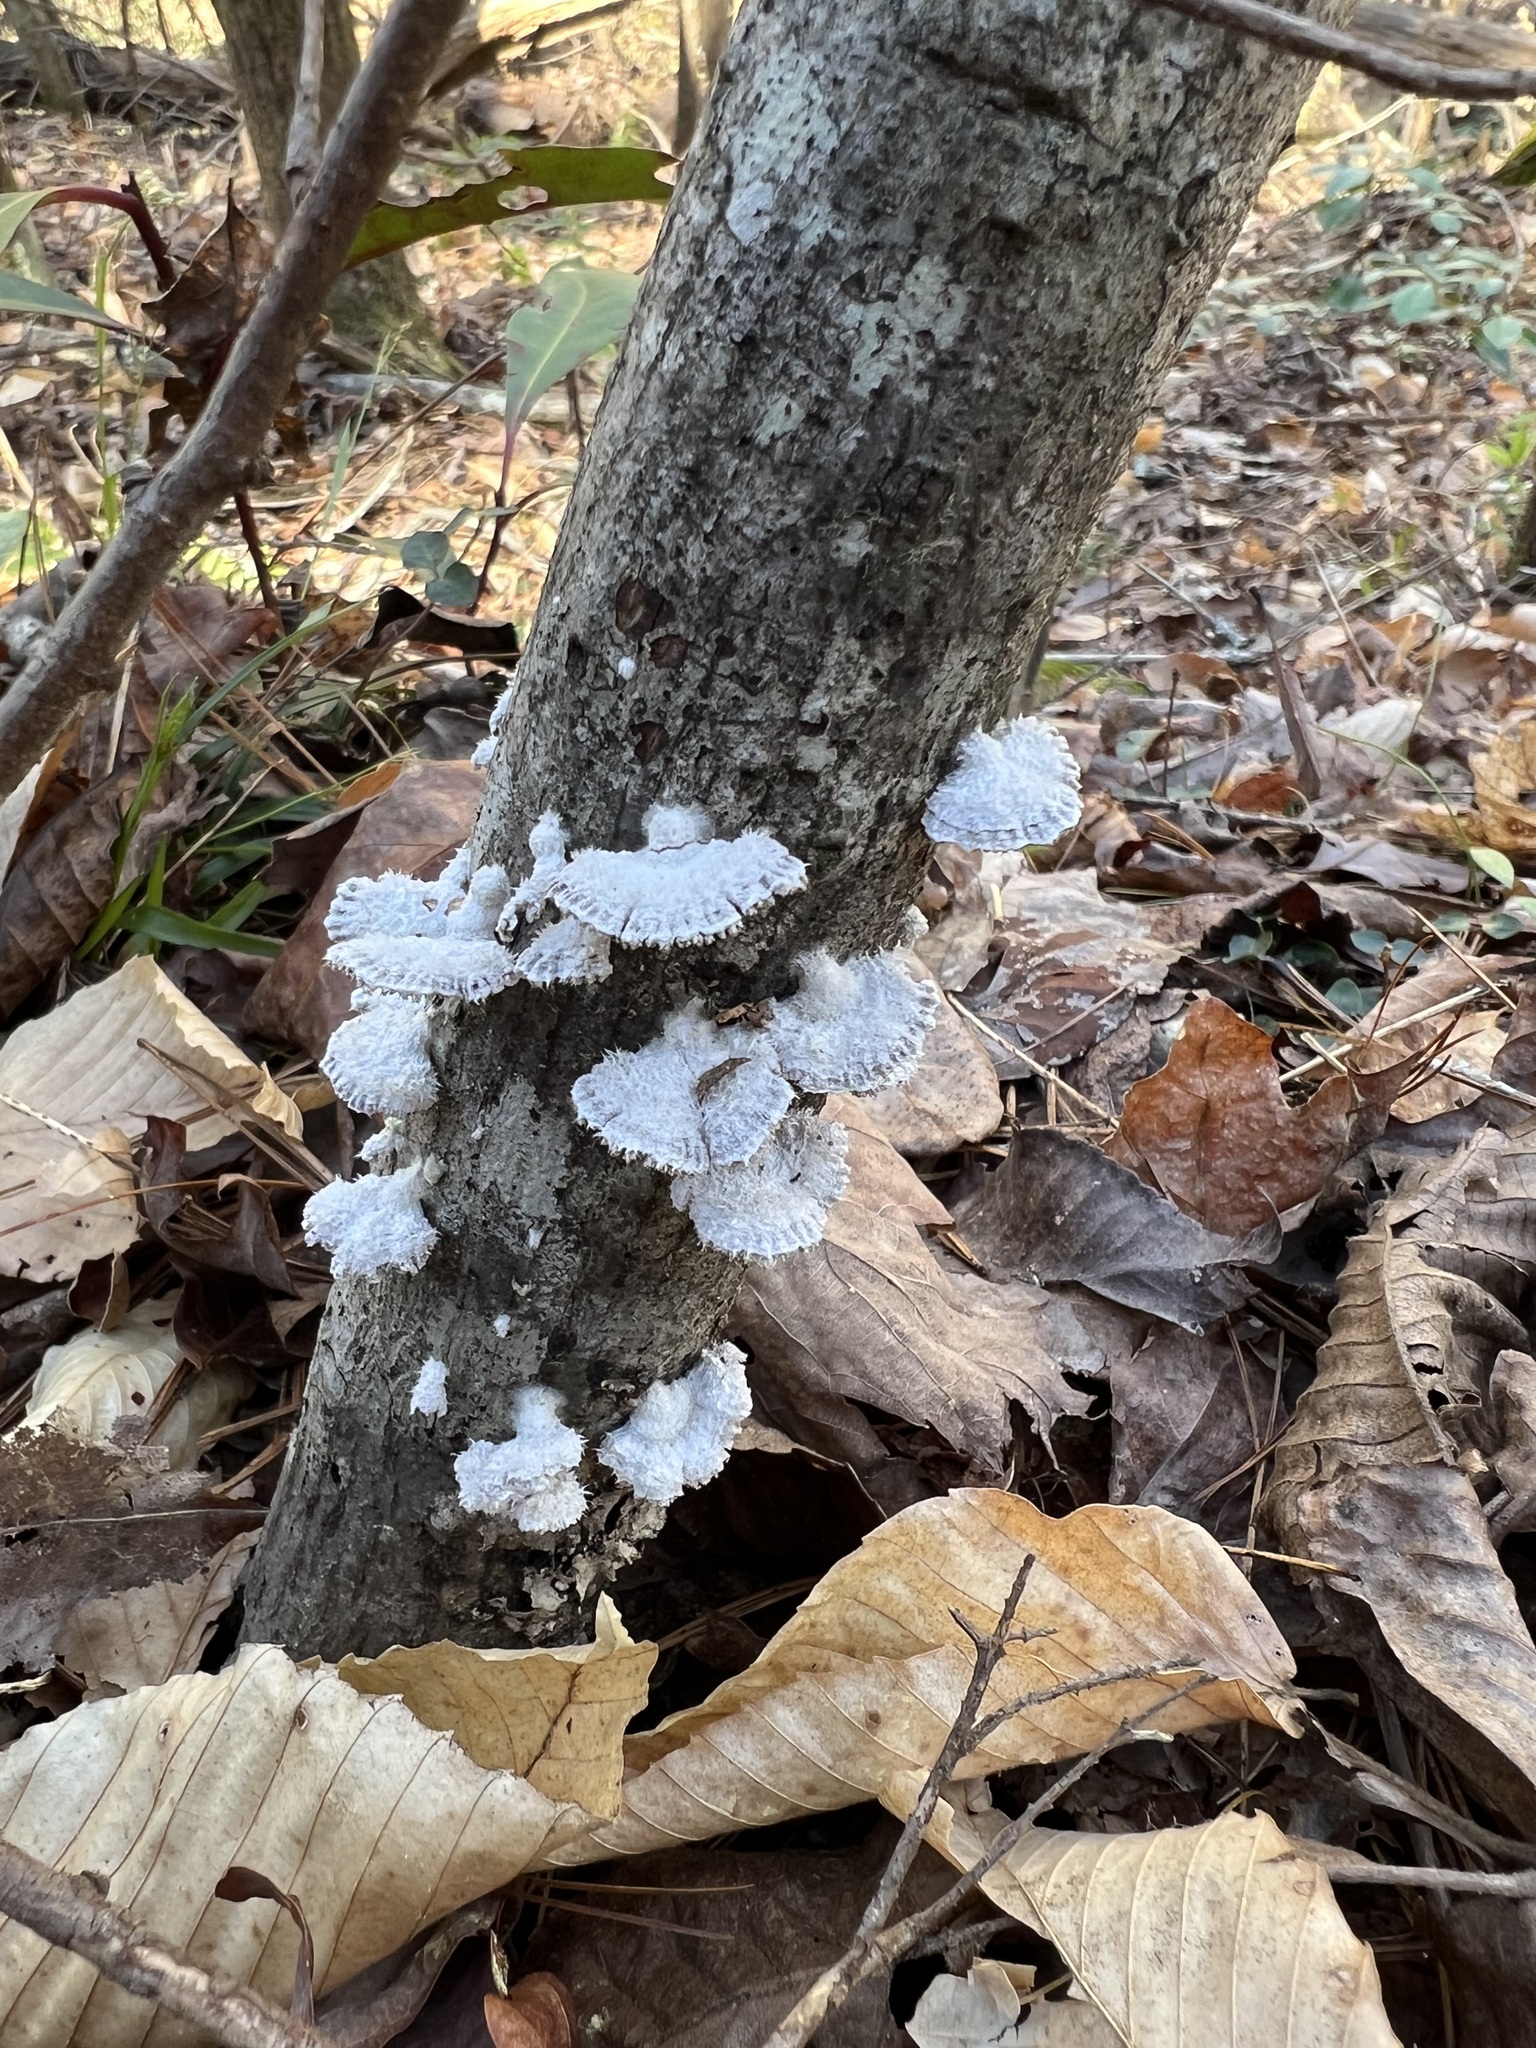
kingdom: Fungi
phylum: Basidiomycota
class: Agaricomycetes
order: Agaricales
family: Schizophyllaceae
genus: Schizophyllum
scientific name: Schizophyllum commune
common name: Common porecrust
